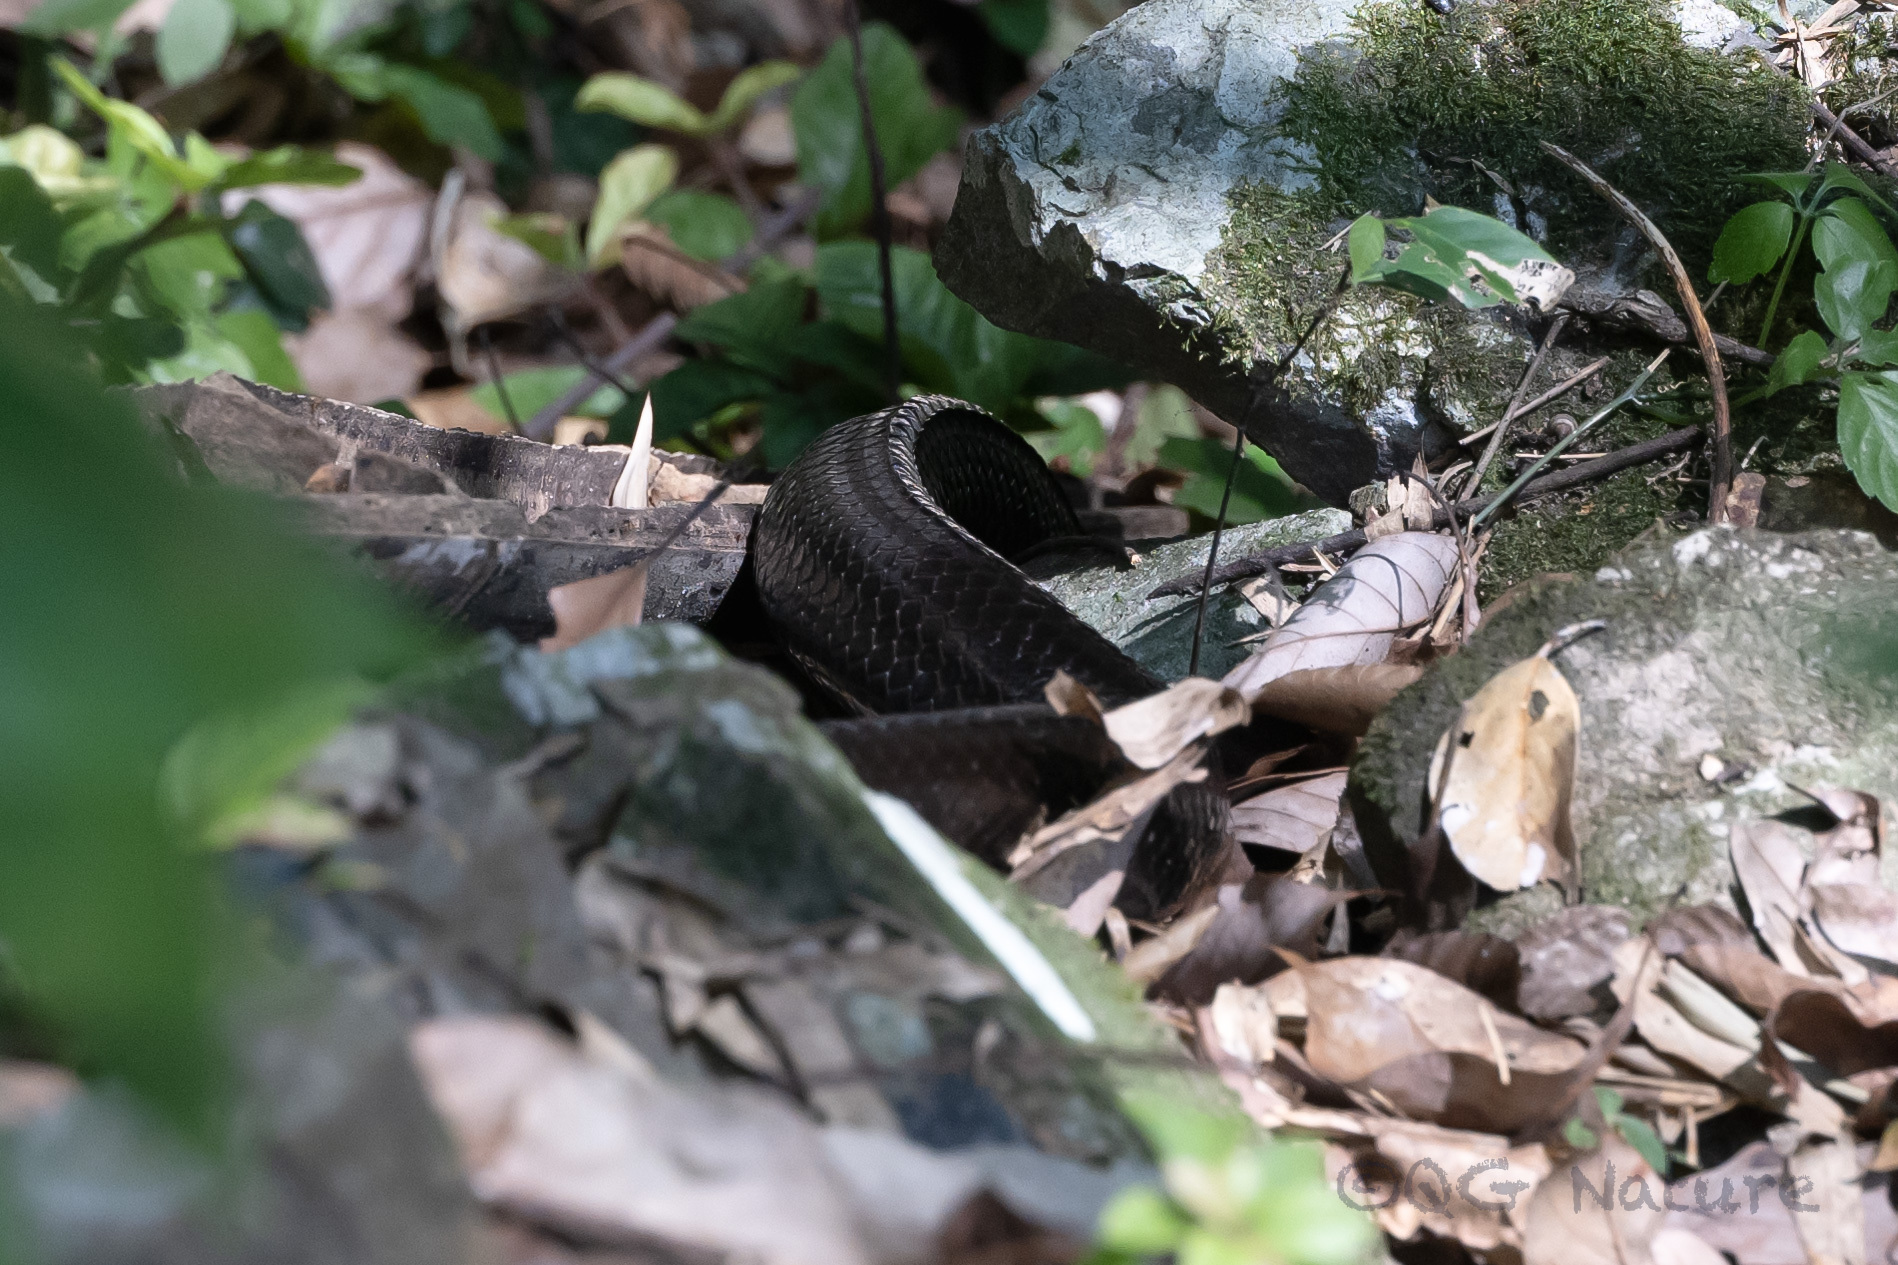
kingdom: Animalia
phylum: Chordata
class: Squamata
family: Colubridae
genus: Ptyas
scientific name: Ptyas dhumnades
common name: Black-striped rat snake
